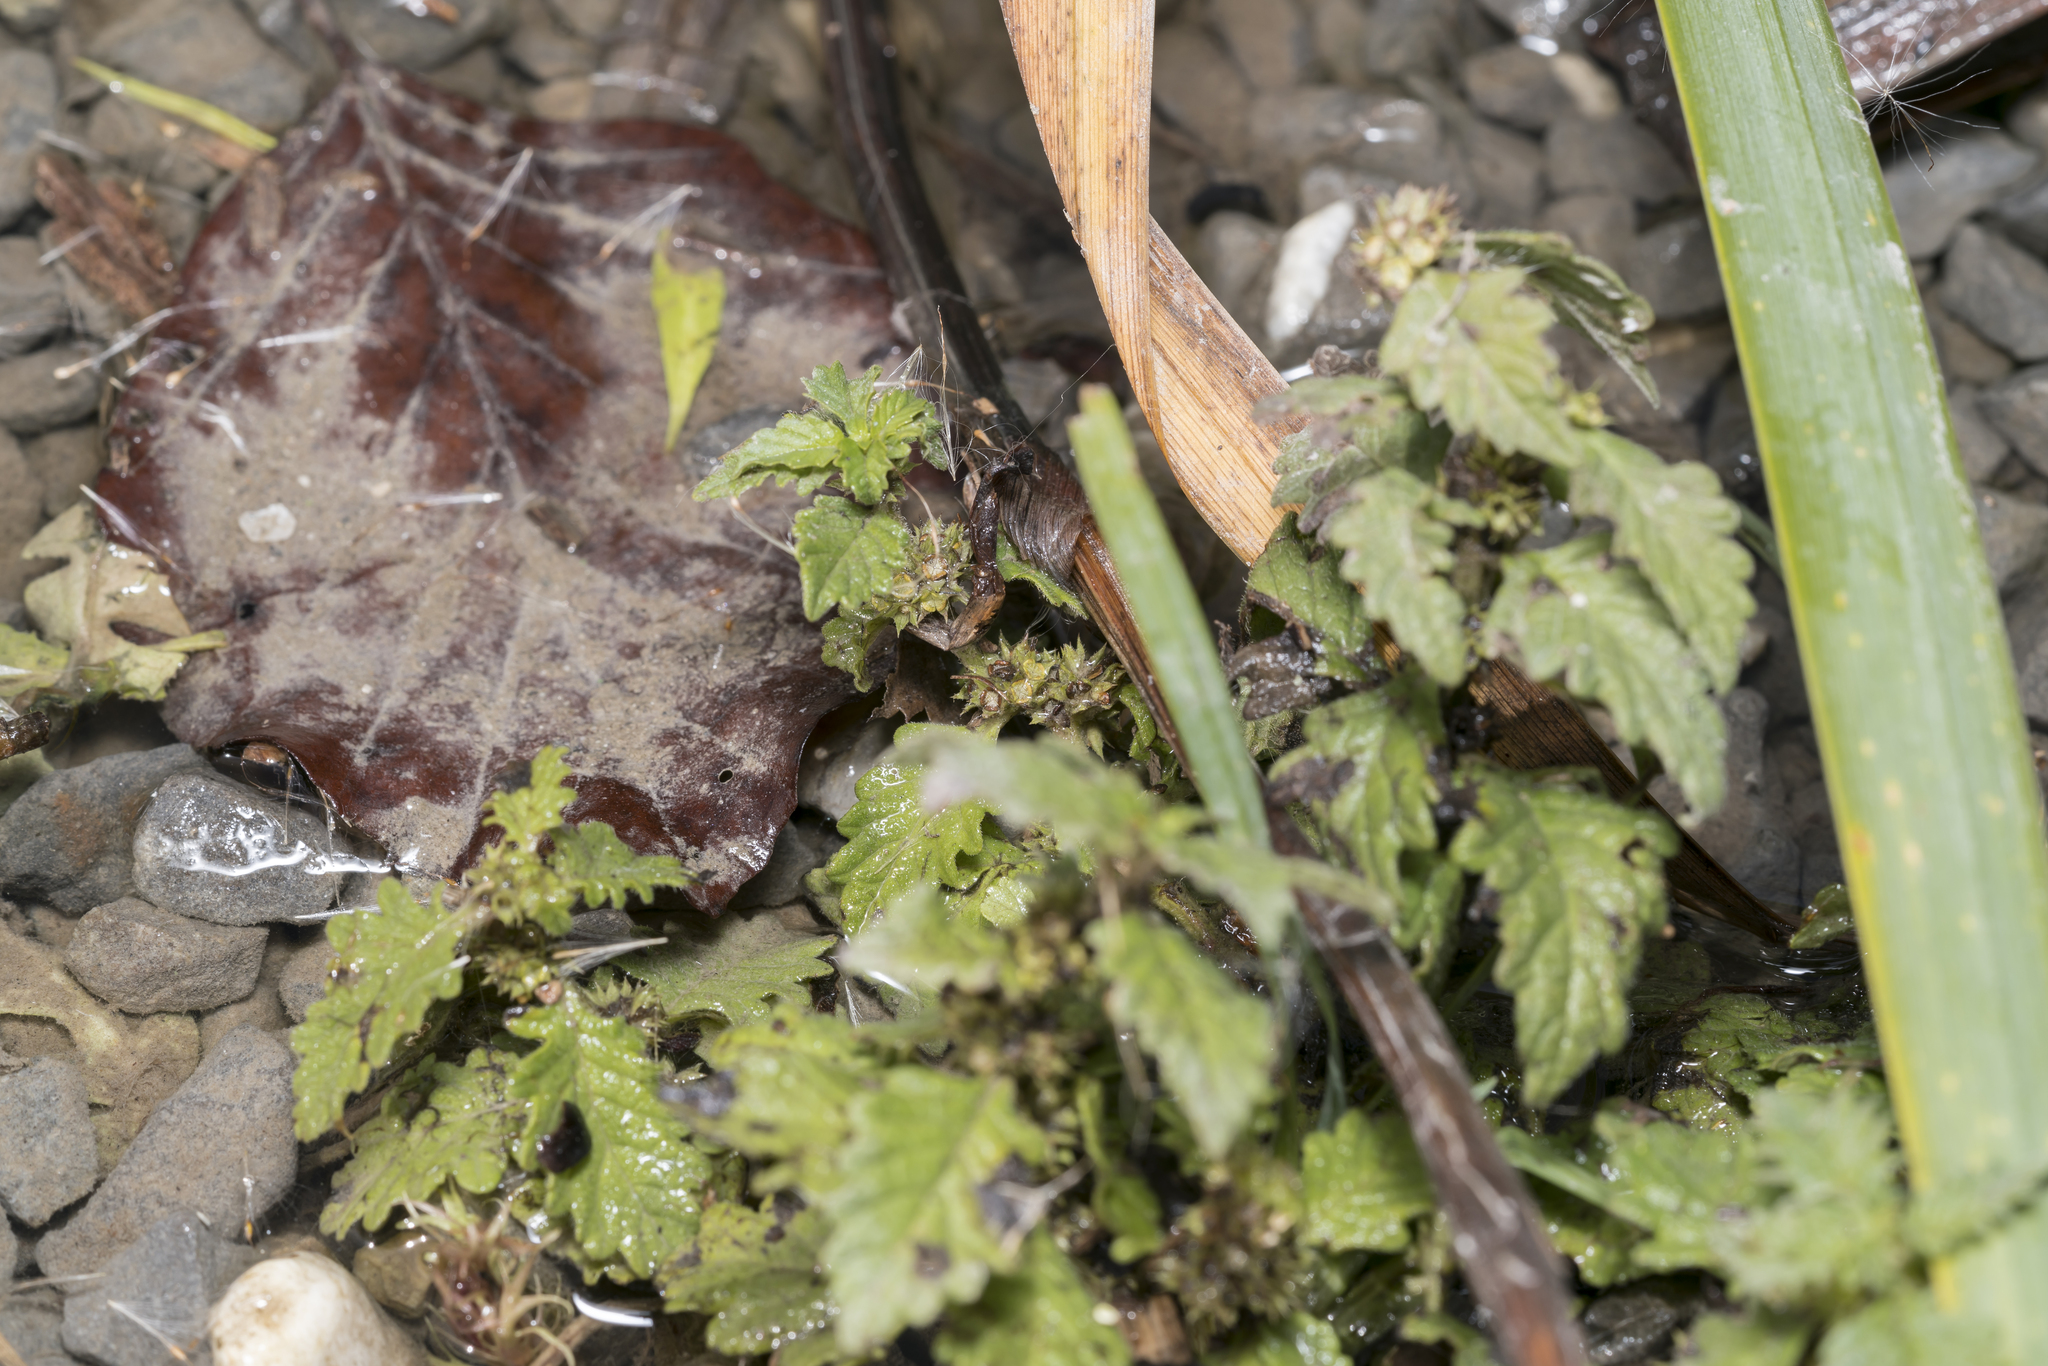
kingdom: Plantae
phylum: Tracheophyta
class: Magnoliopsida
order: Lamiales
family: Lamiaceae
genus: Lycopus
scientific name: Lycopus europaeus
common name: European bugleweed
